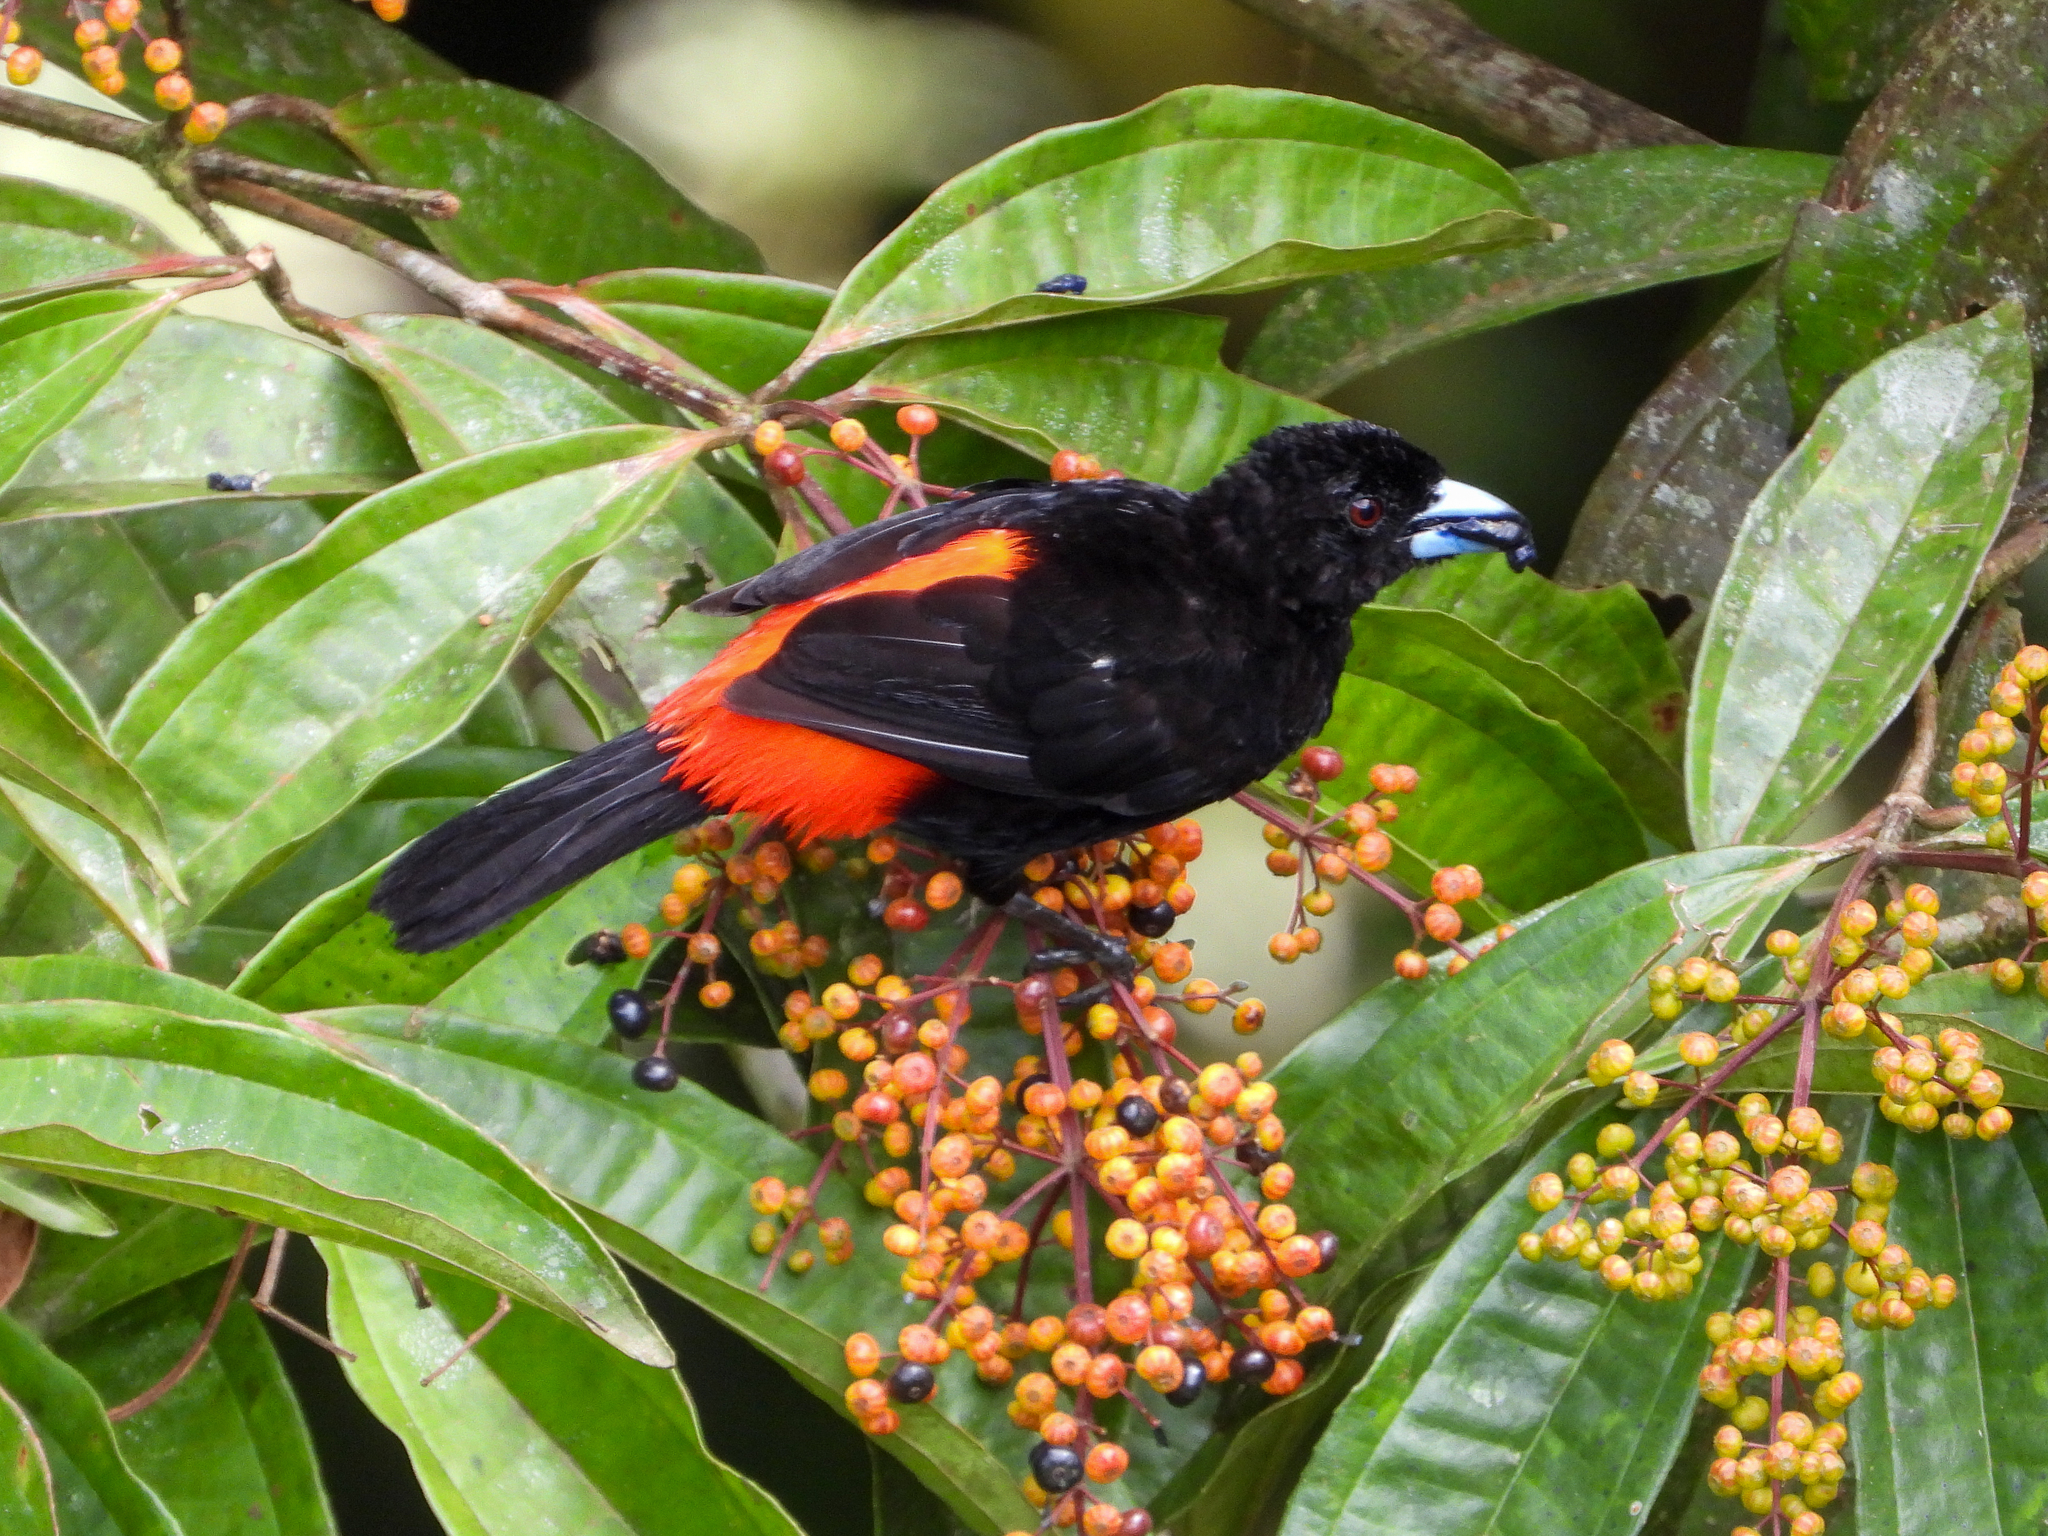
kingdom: Animalia
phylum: Chordata
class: Aves
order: Passeriformes
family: Thraupidae
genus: Ramphocelus
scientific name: Ramphocelus passerinii
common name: Passerini's tanager
